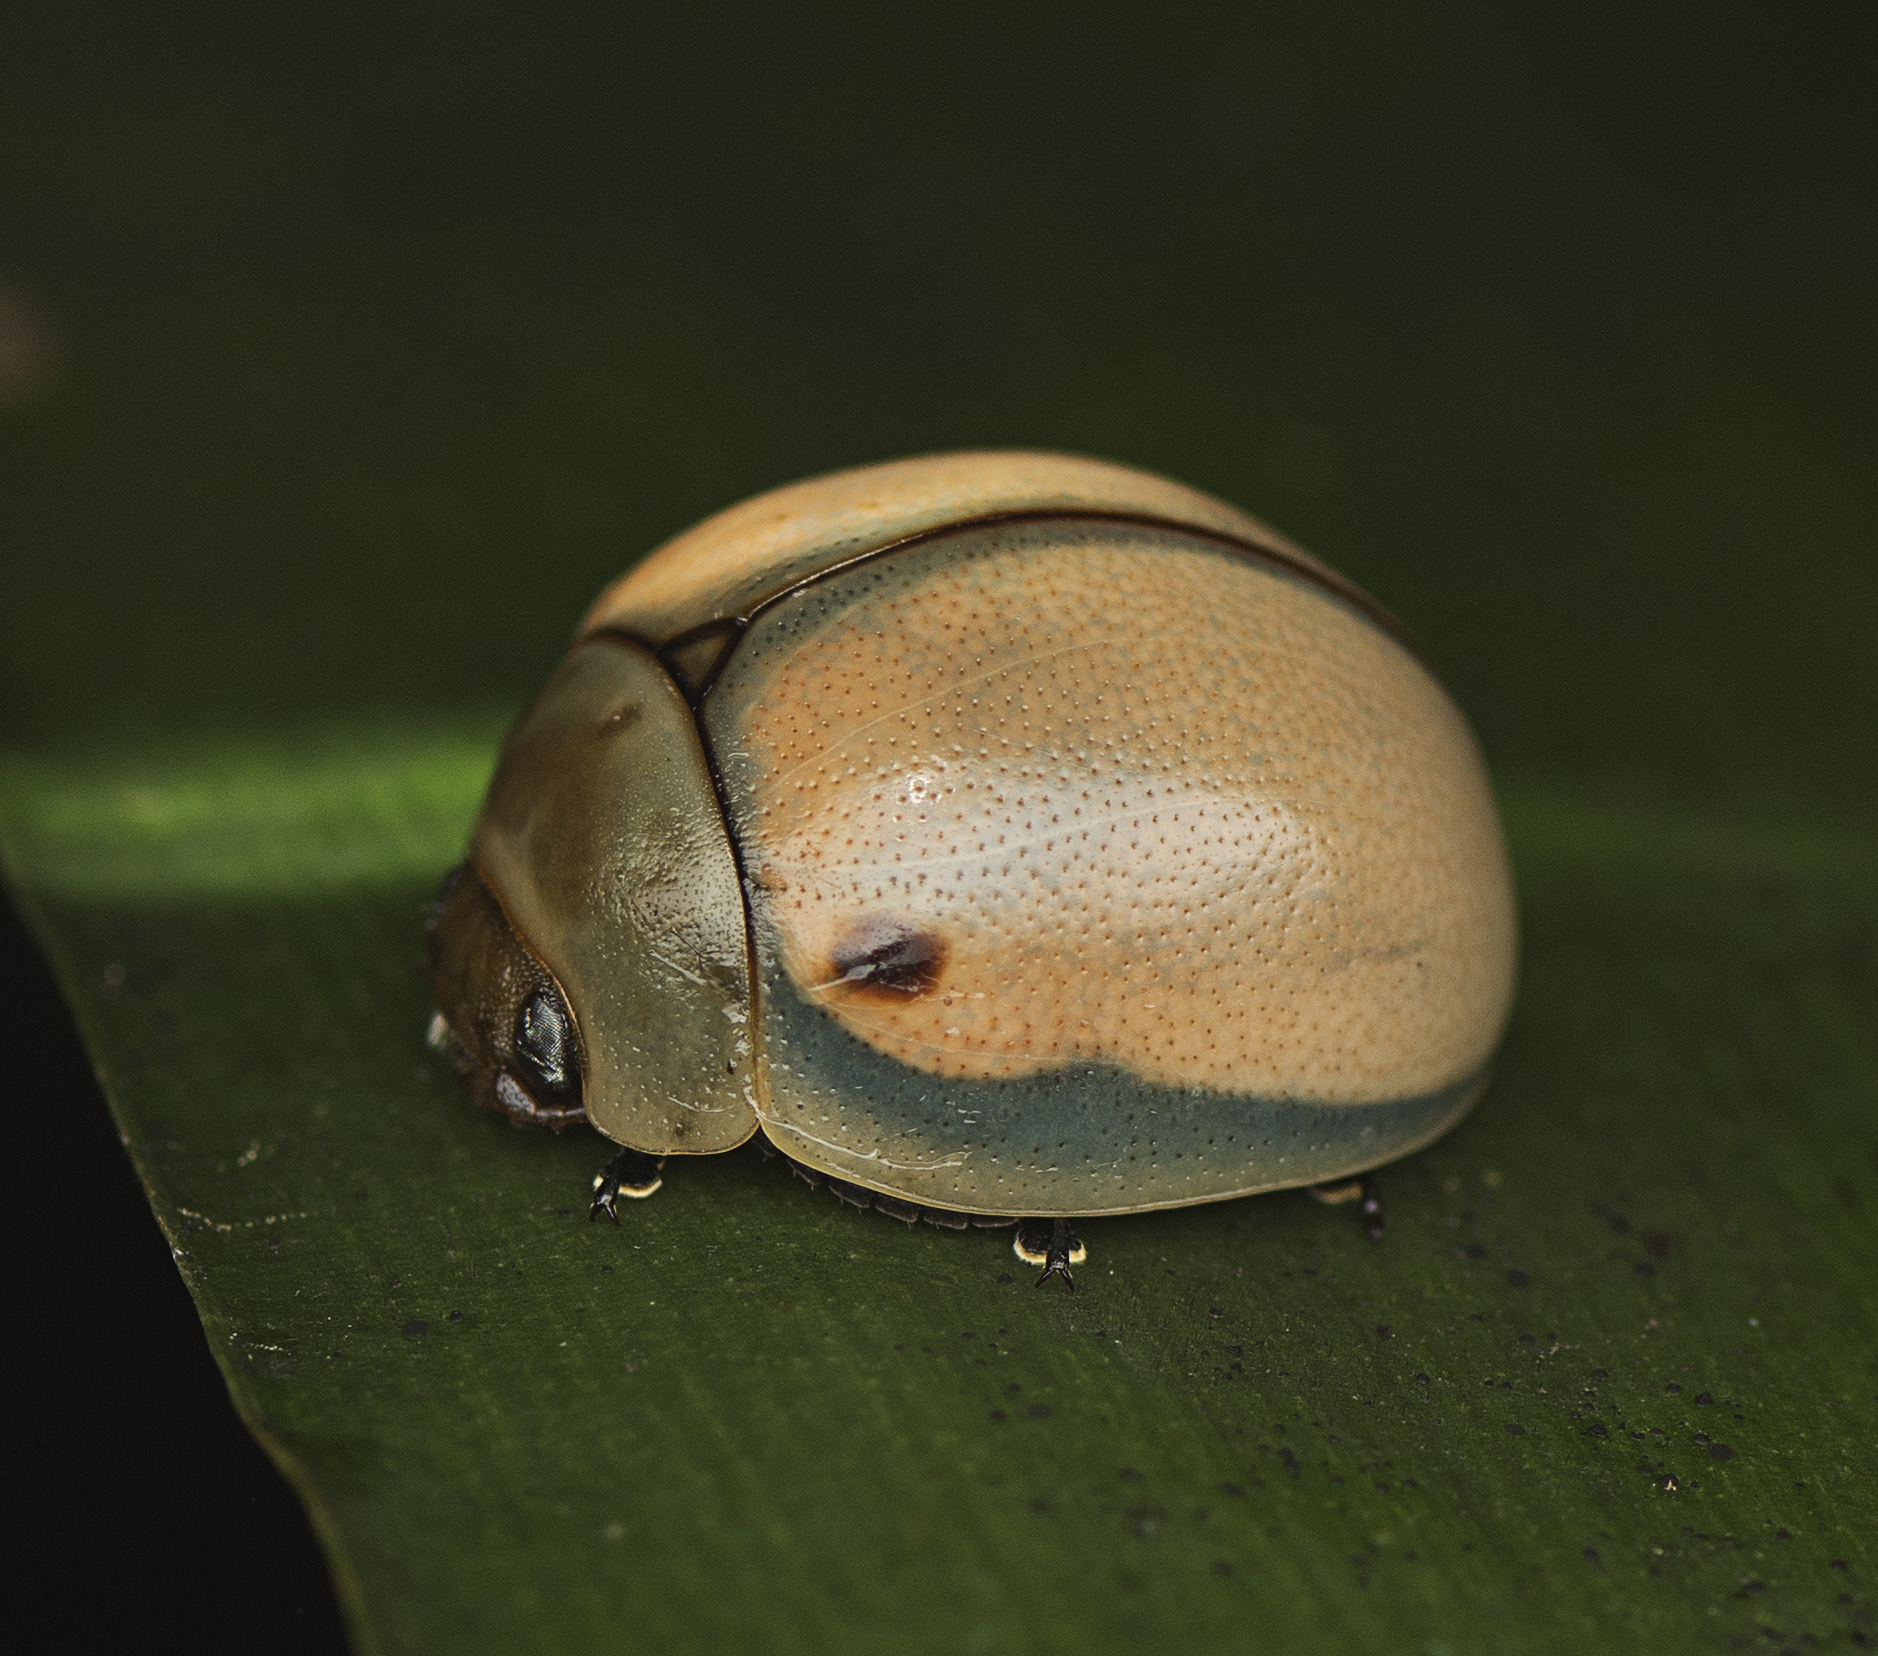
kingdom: Animalia
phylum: Arthropoda
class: Insecta
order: Coleoptera
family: Chrysomelidae
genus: Dicranosterna
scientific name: Dicranosterna
